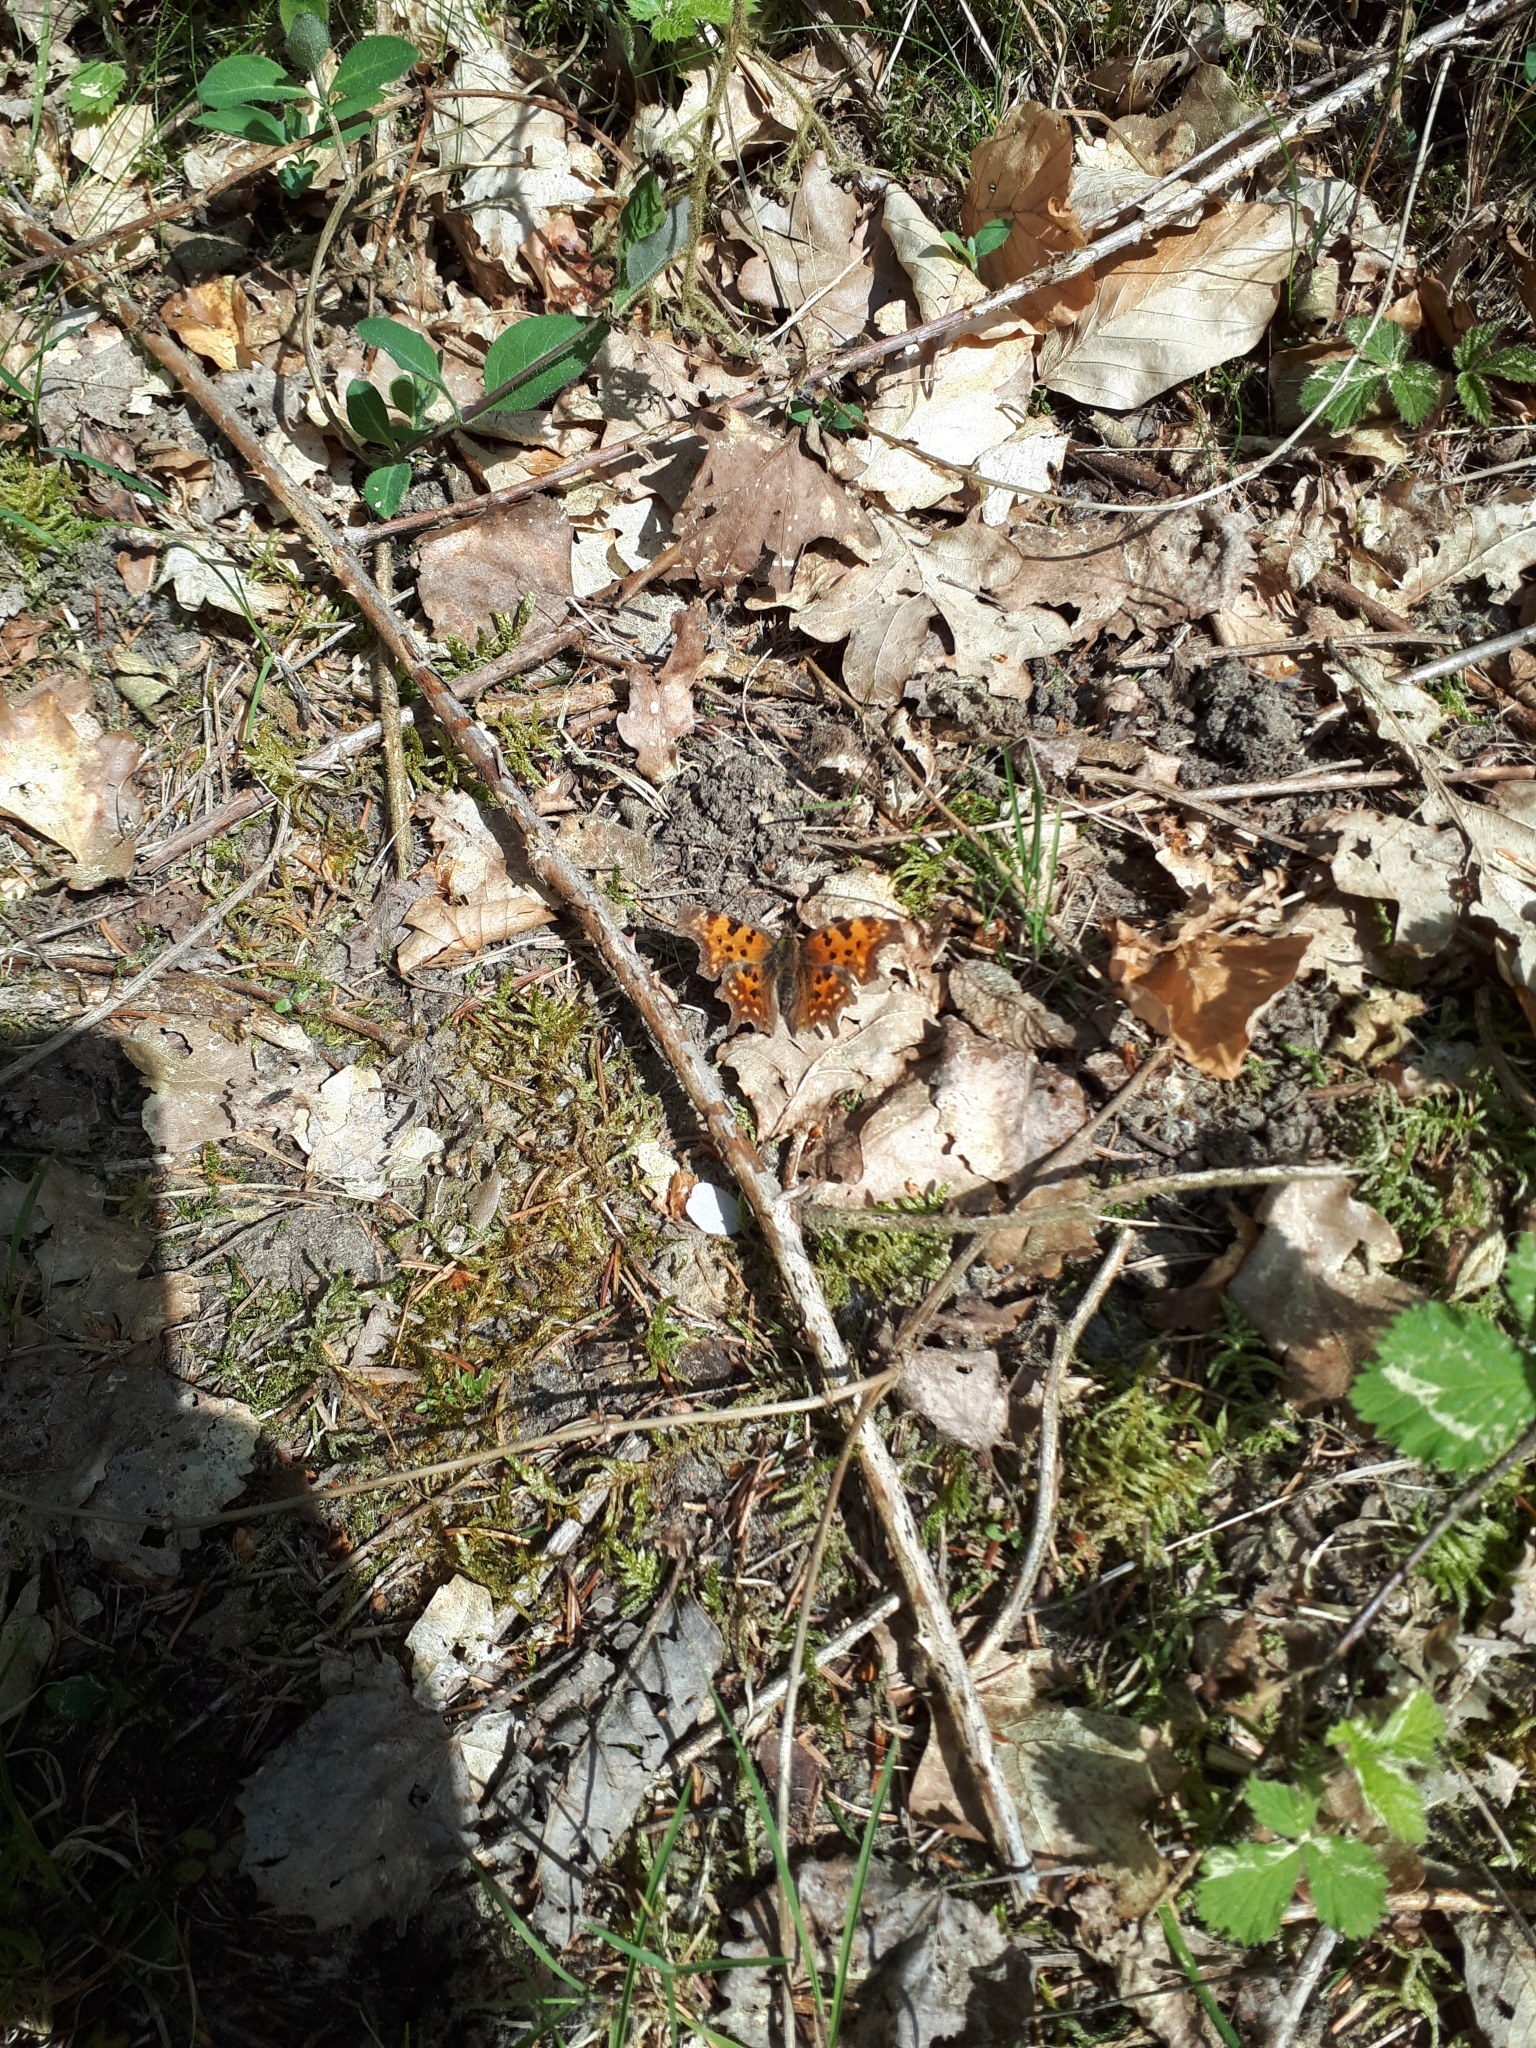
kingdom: Animalia
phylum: Arthropoda
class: Insecta
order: Lepidoptera
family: Nymphalidae
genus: Polygonia
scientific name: Polygonia c-album
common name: Comma
